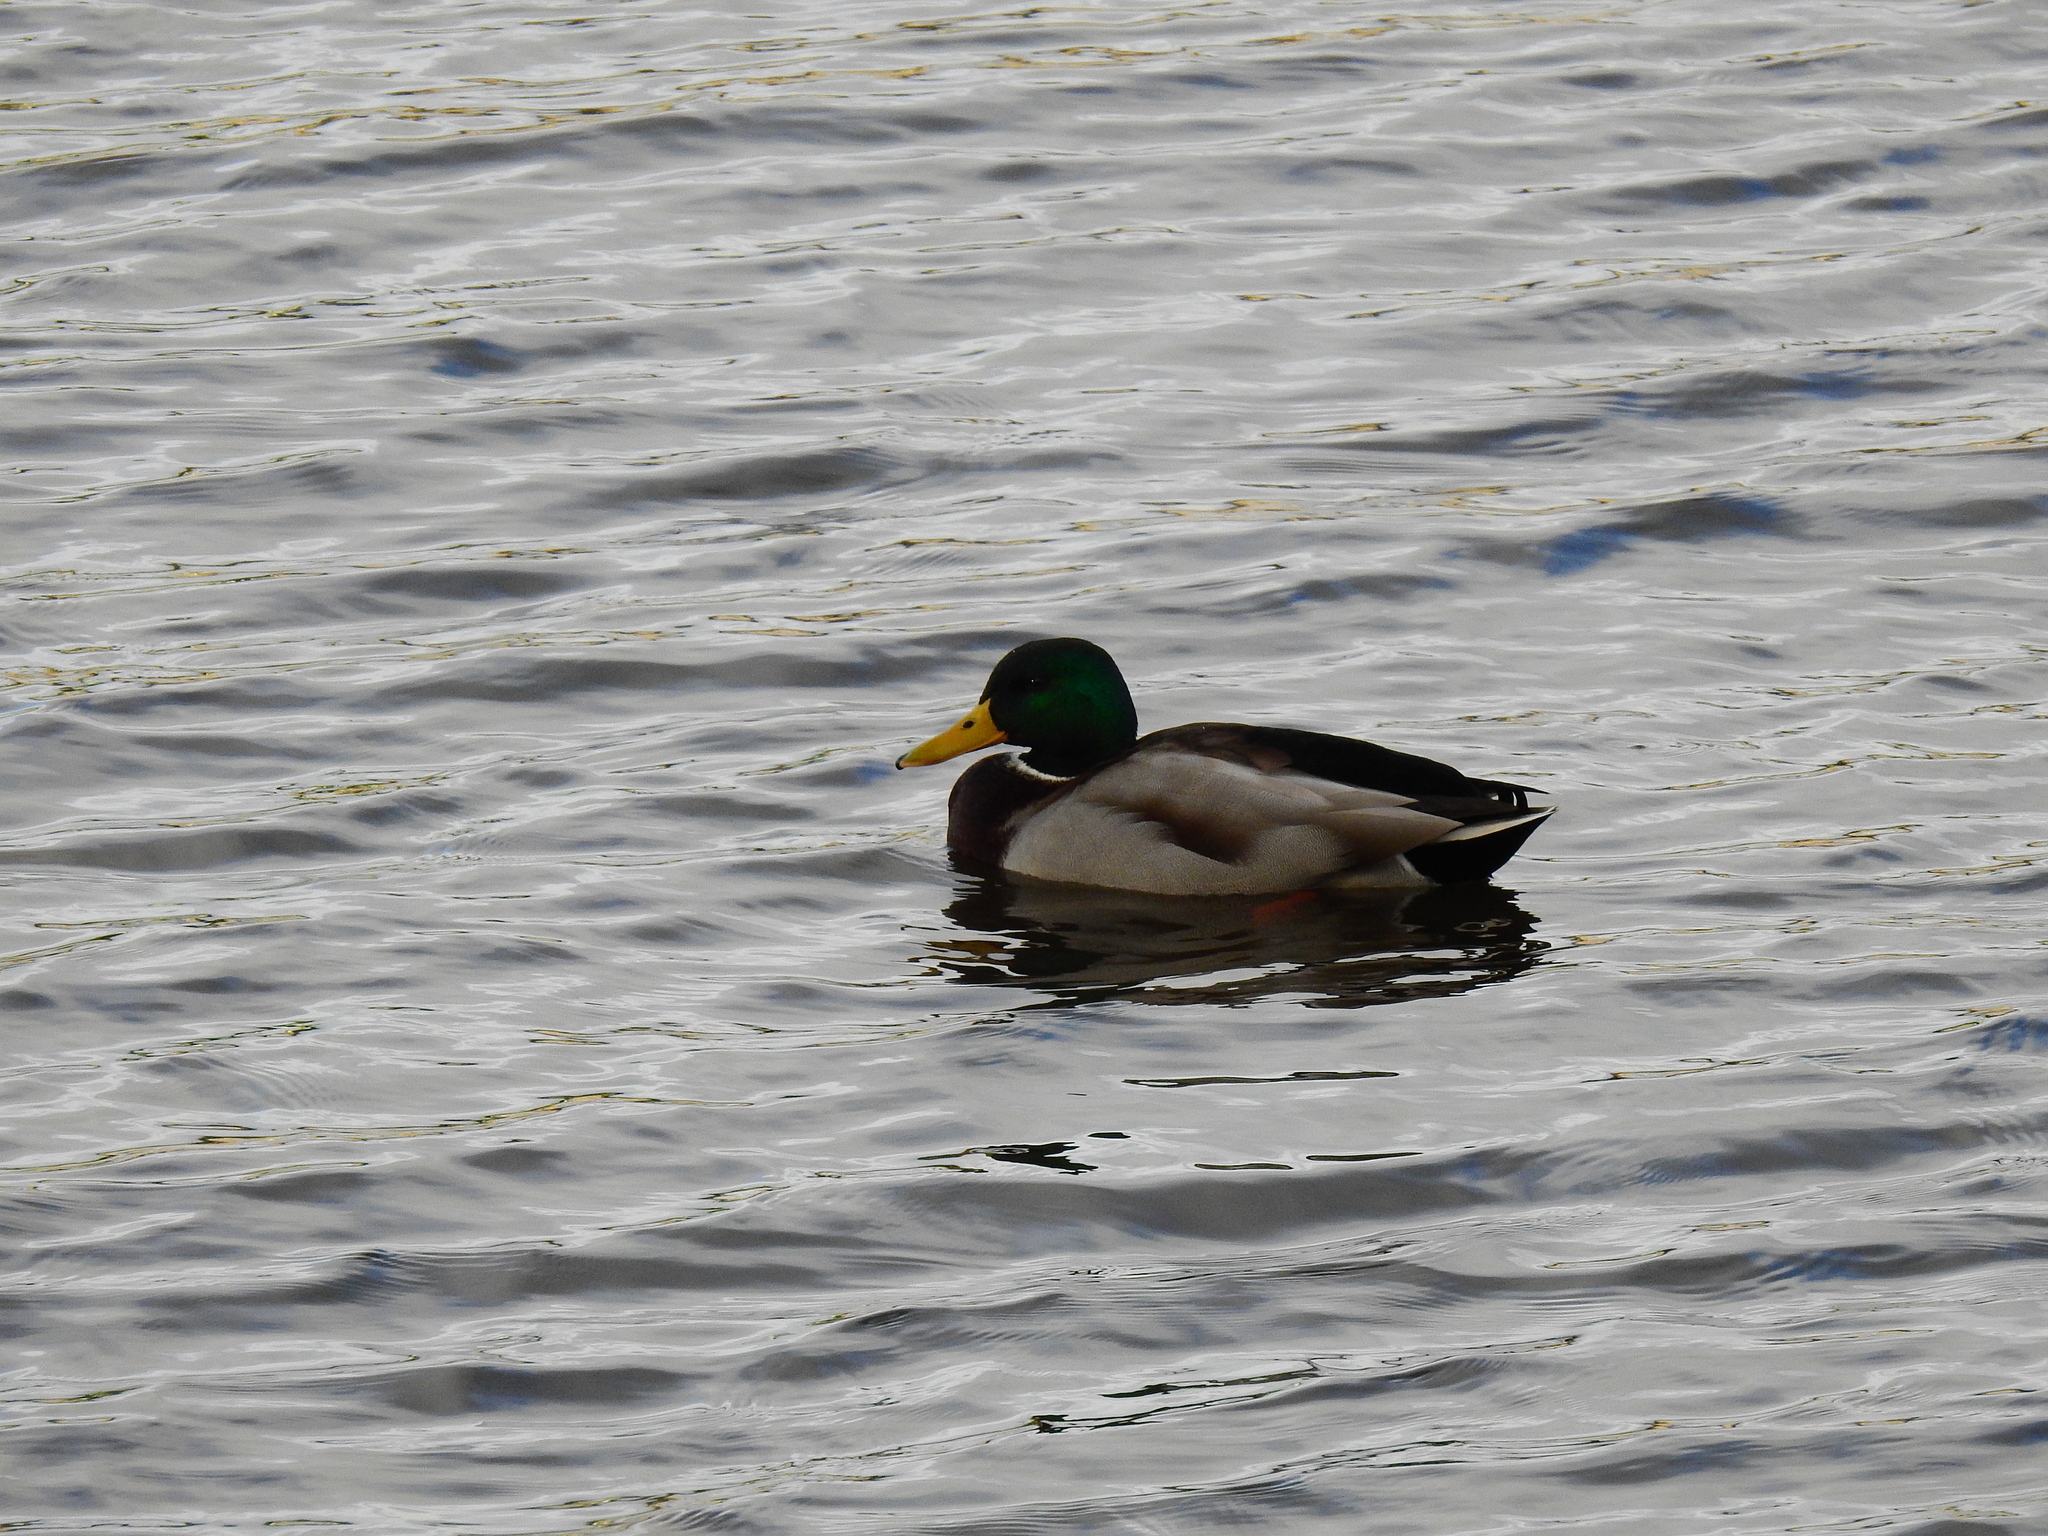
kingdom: Animalia
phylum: Chordata
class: Aves
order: Anseriformes
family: Anatidae
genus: Anas
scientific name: Anas platyrhynchos
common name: Mallard
